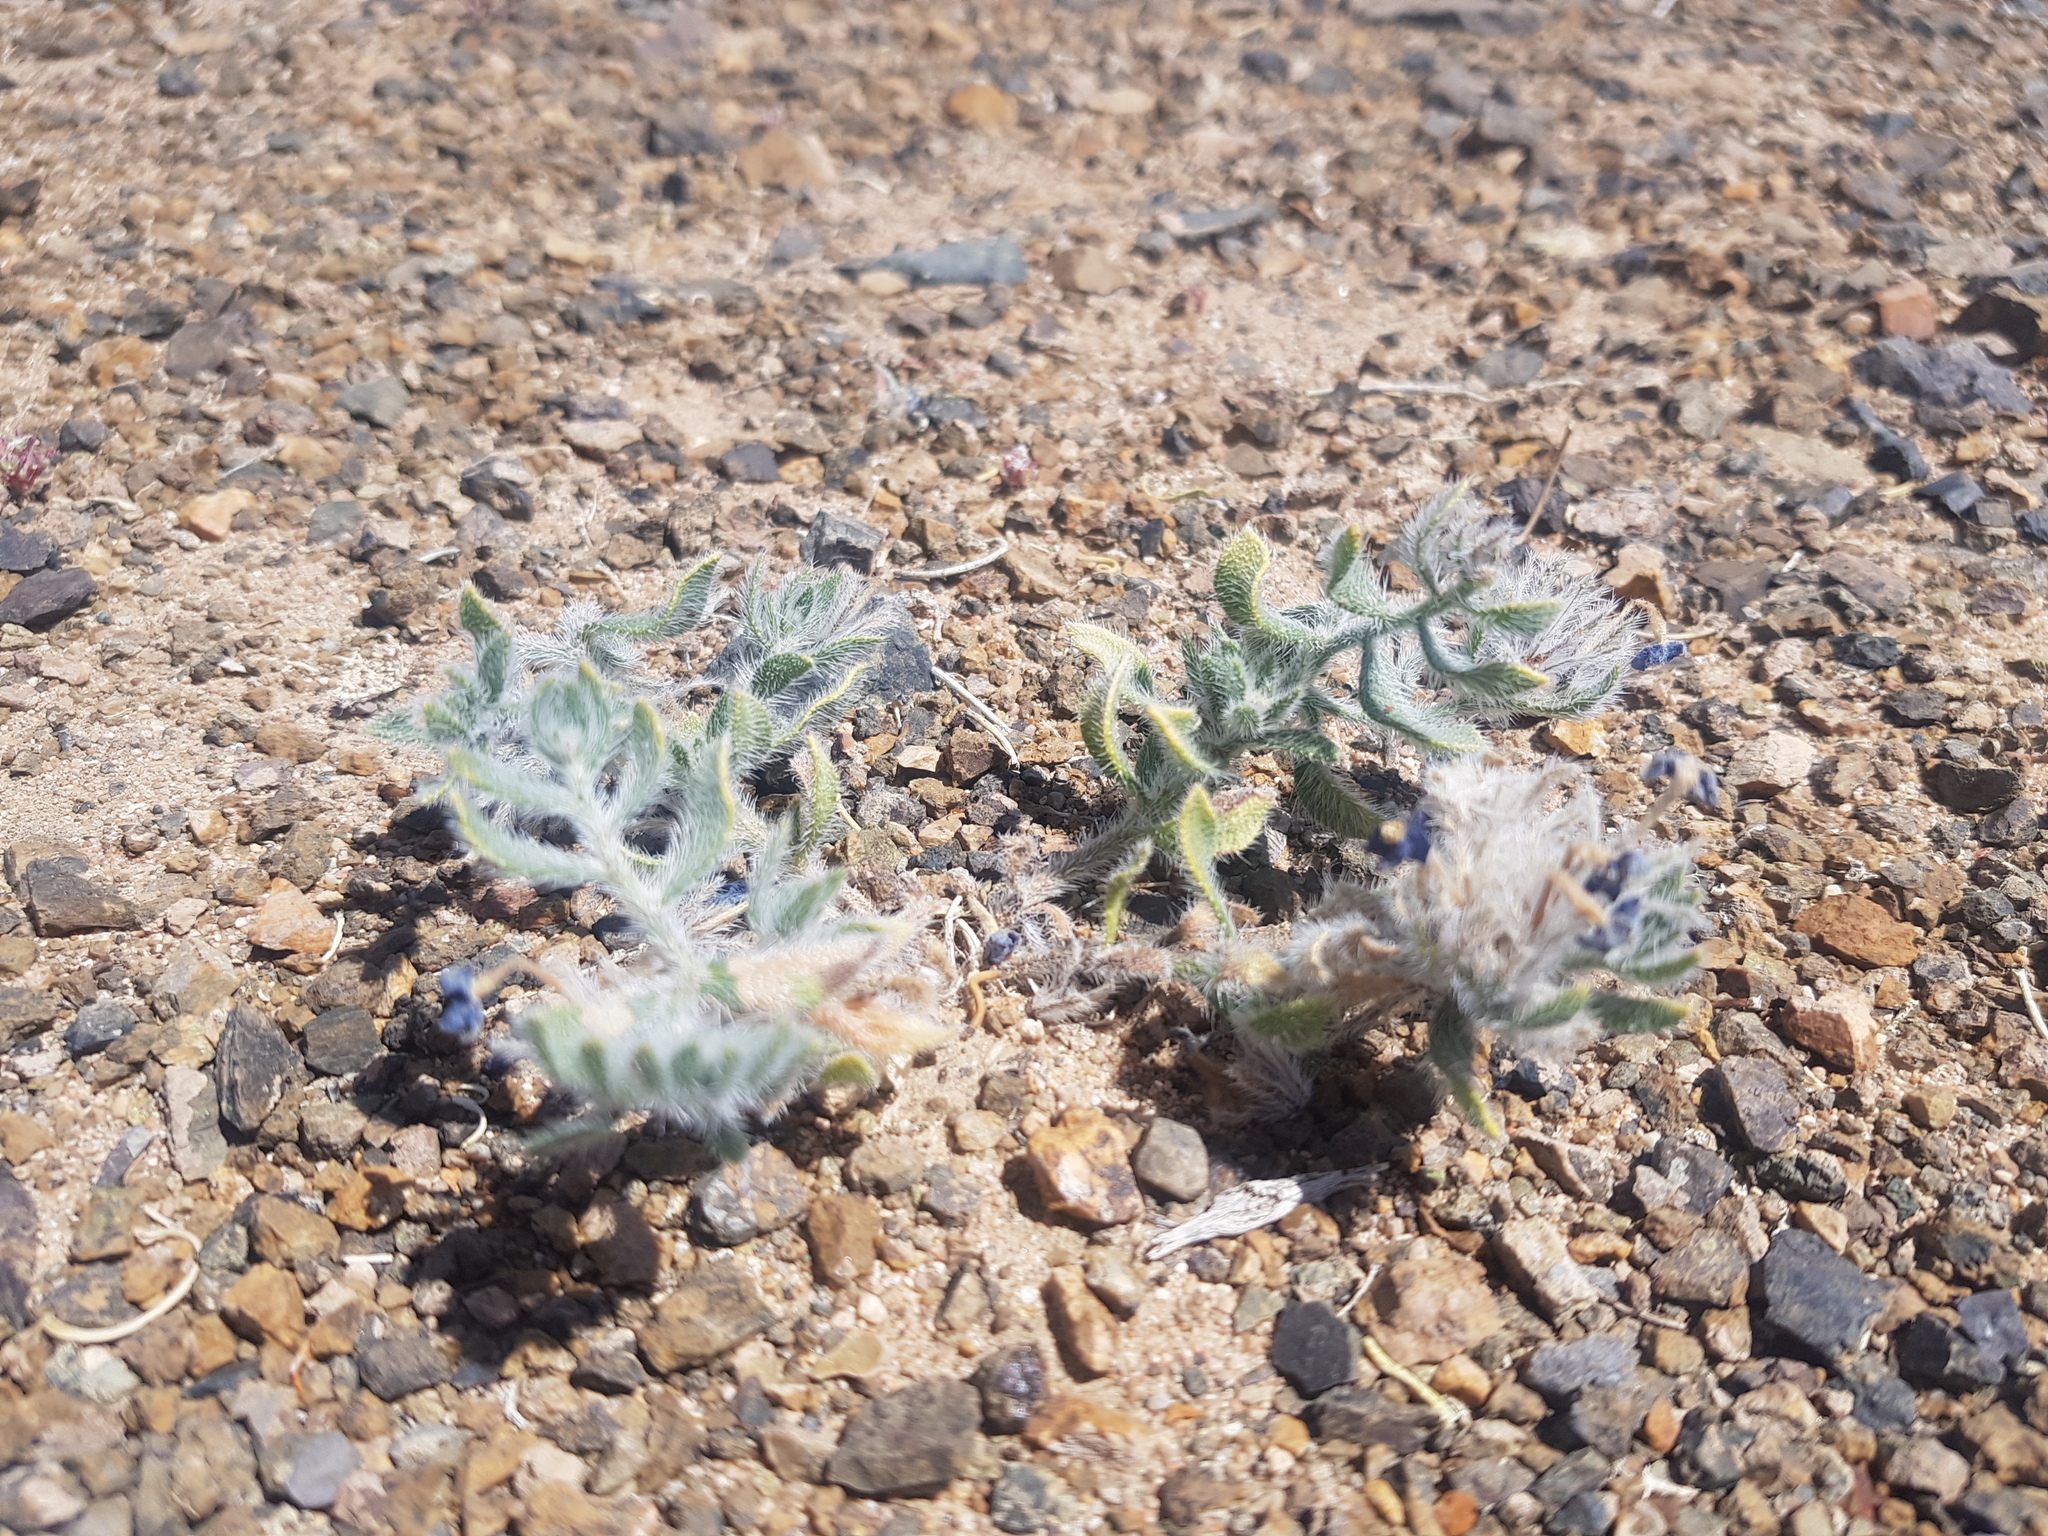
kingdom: Plantae
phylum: Tracheophyta
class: Magnoliopsida
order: Boraginales
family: Boraginaceae
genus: Arnebia
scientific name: Arnebia fimbriata
